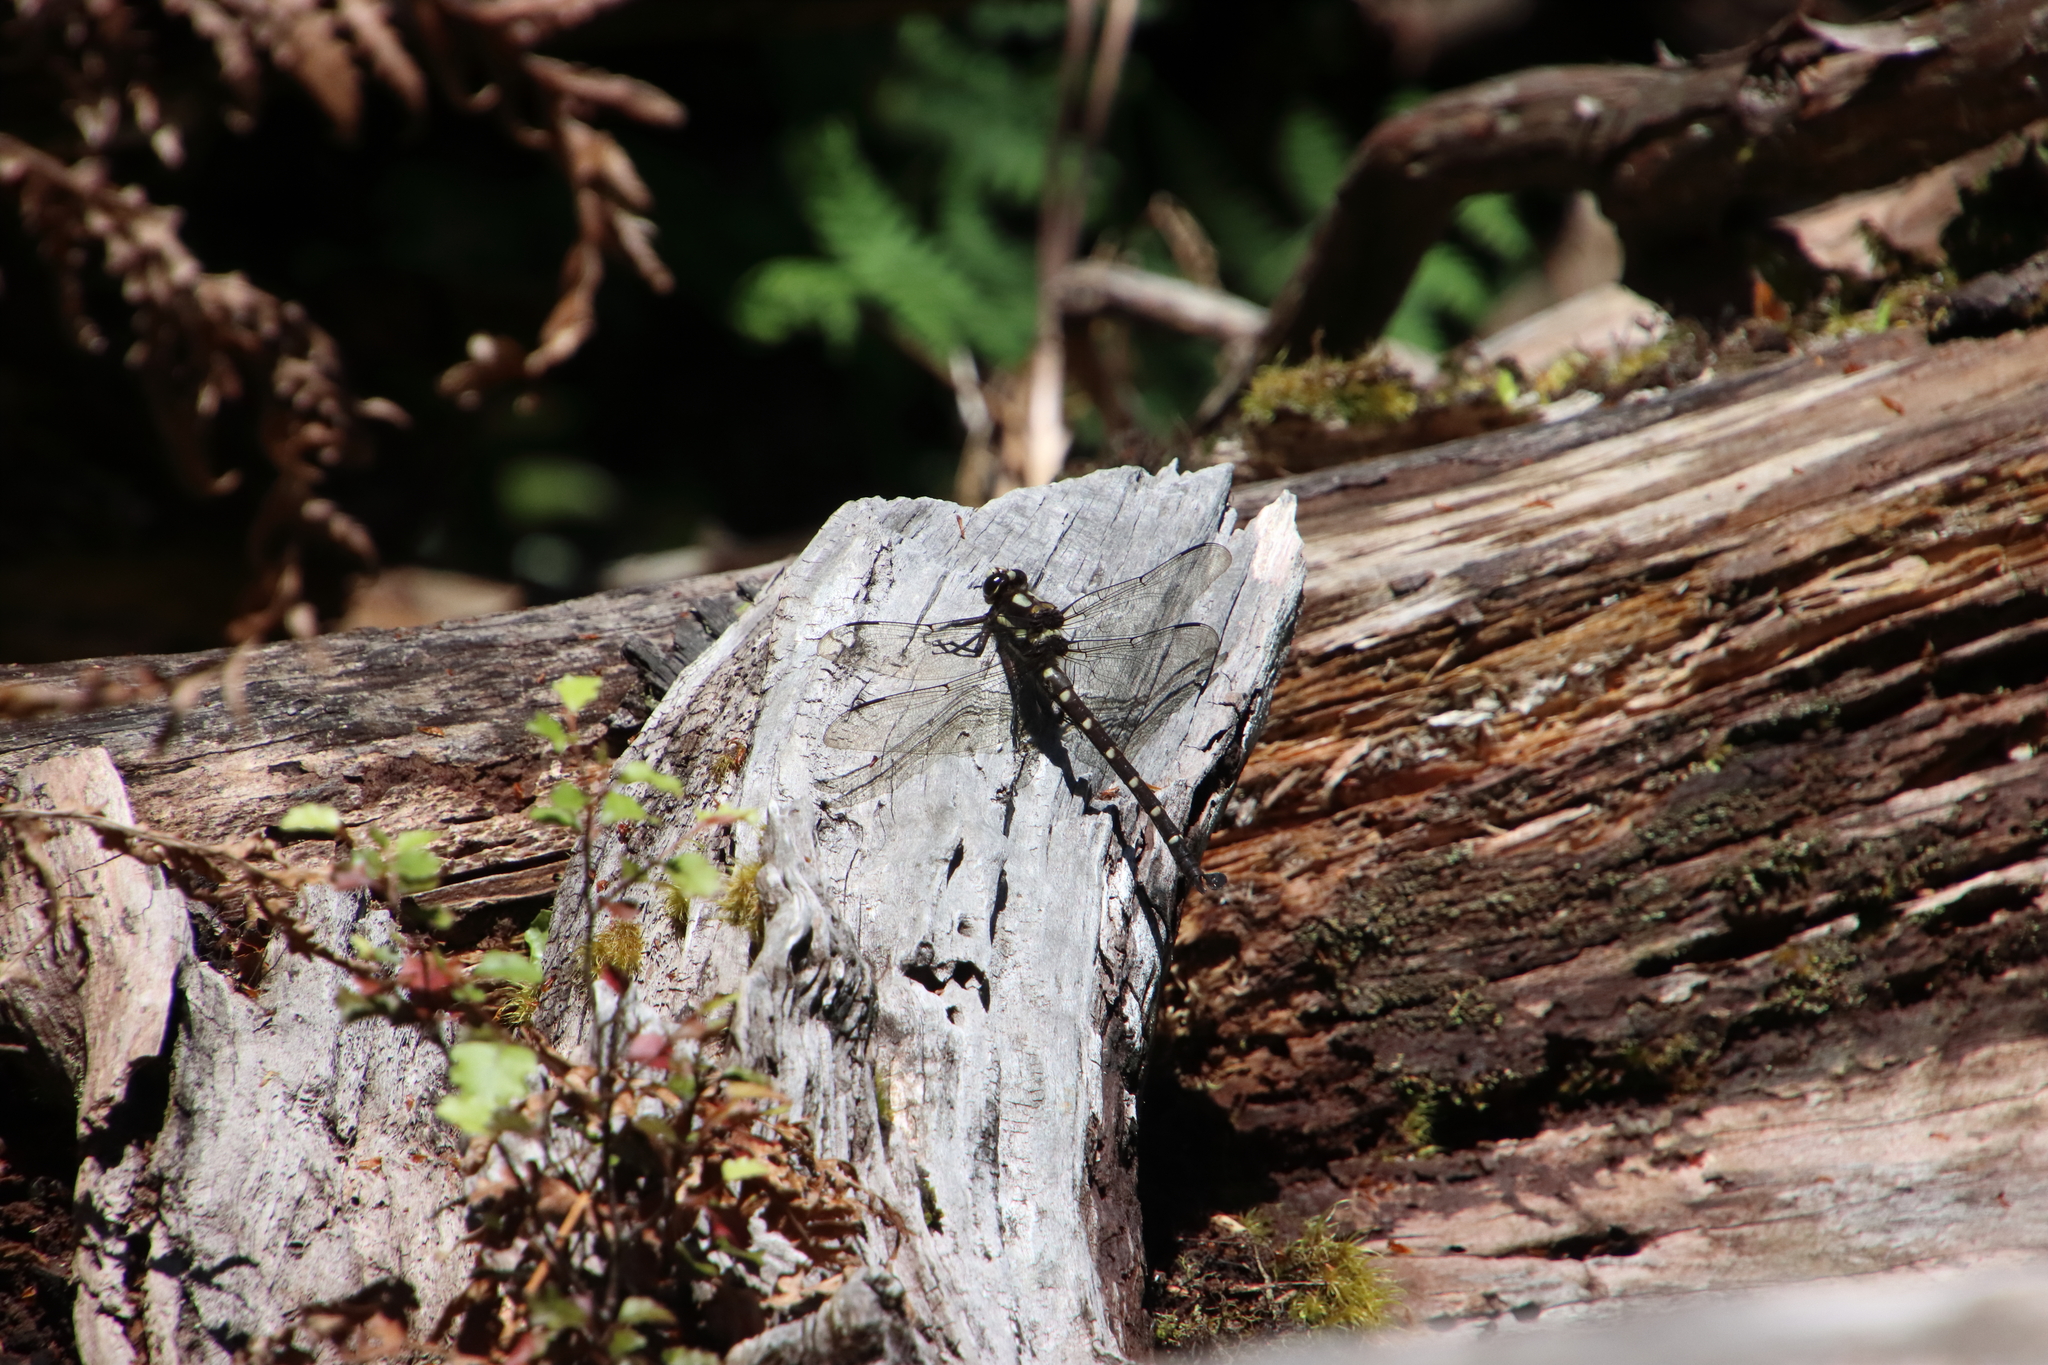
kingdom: Animalia
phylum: Arthropoda
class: Insecta
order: Odonata
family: Petaluridae
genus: Uropetala
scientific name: Uropetala carovei
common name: Bush giant dragonfly
